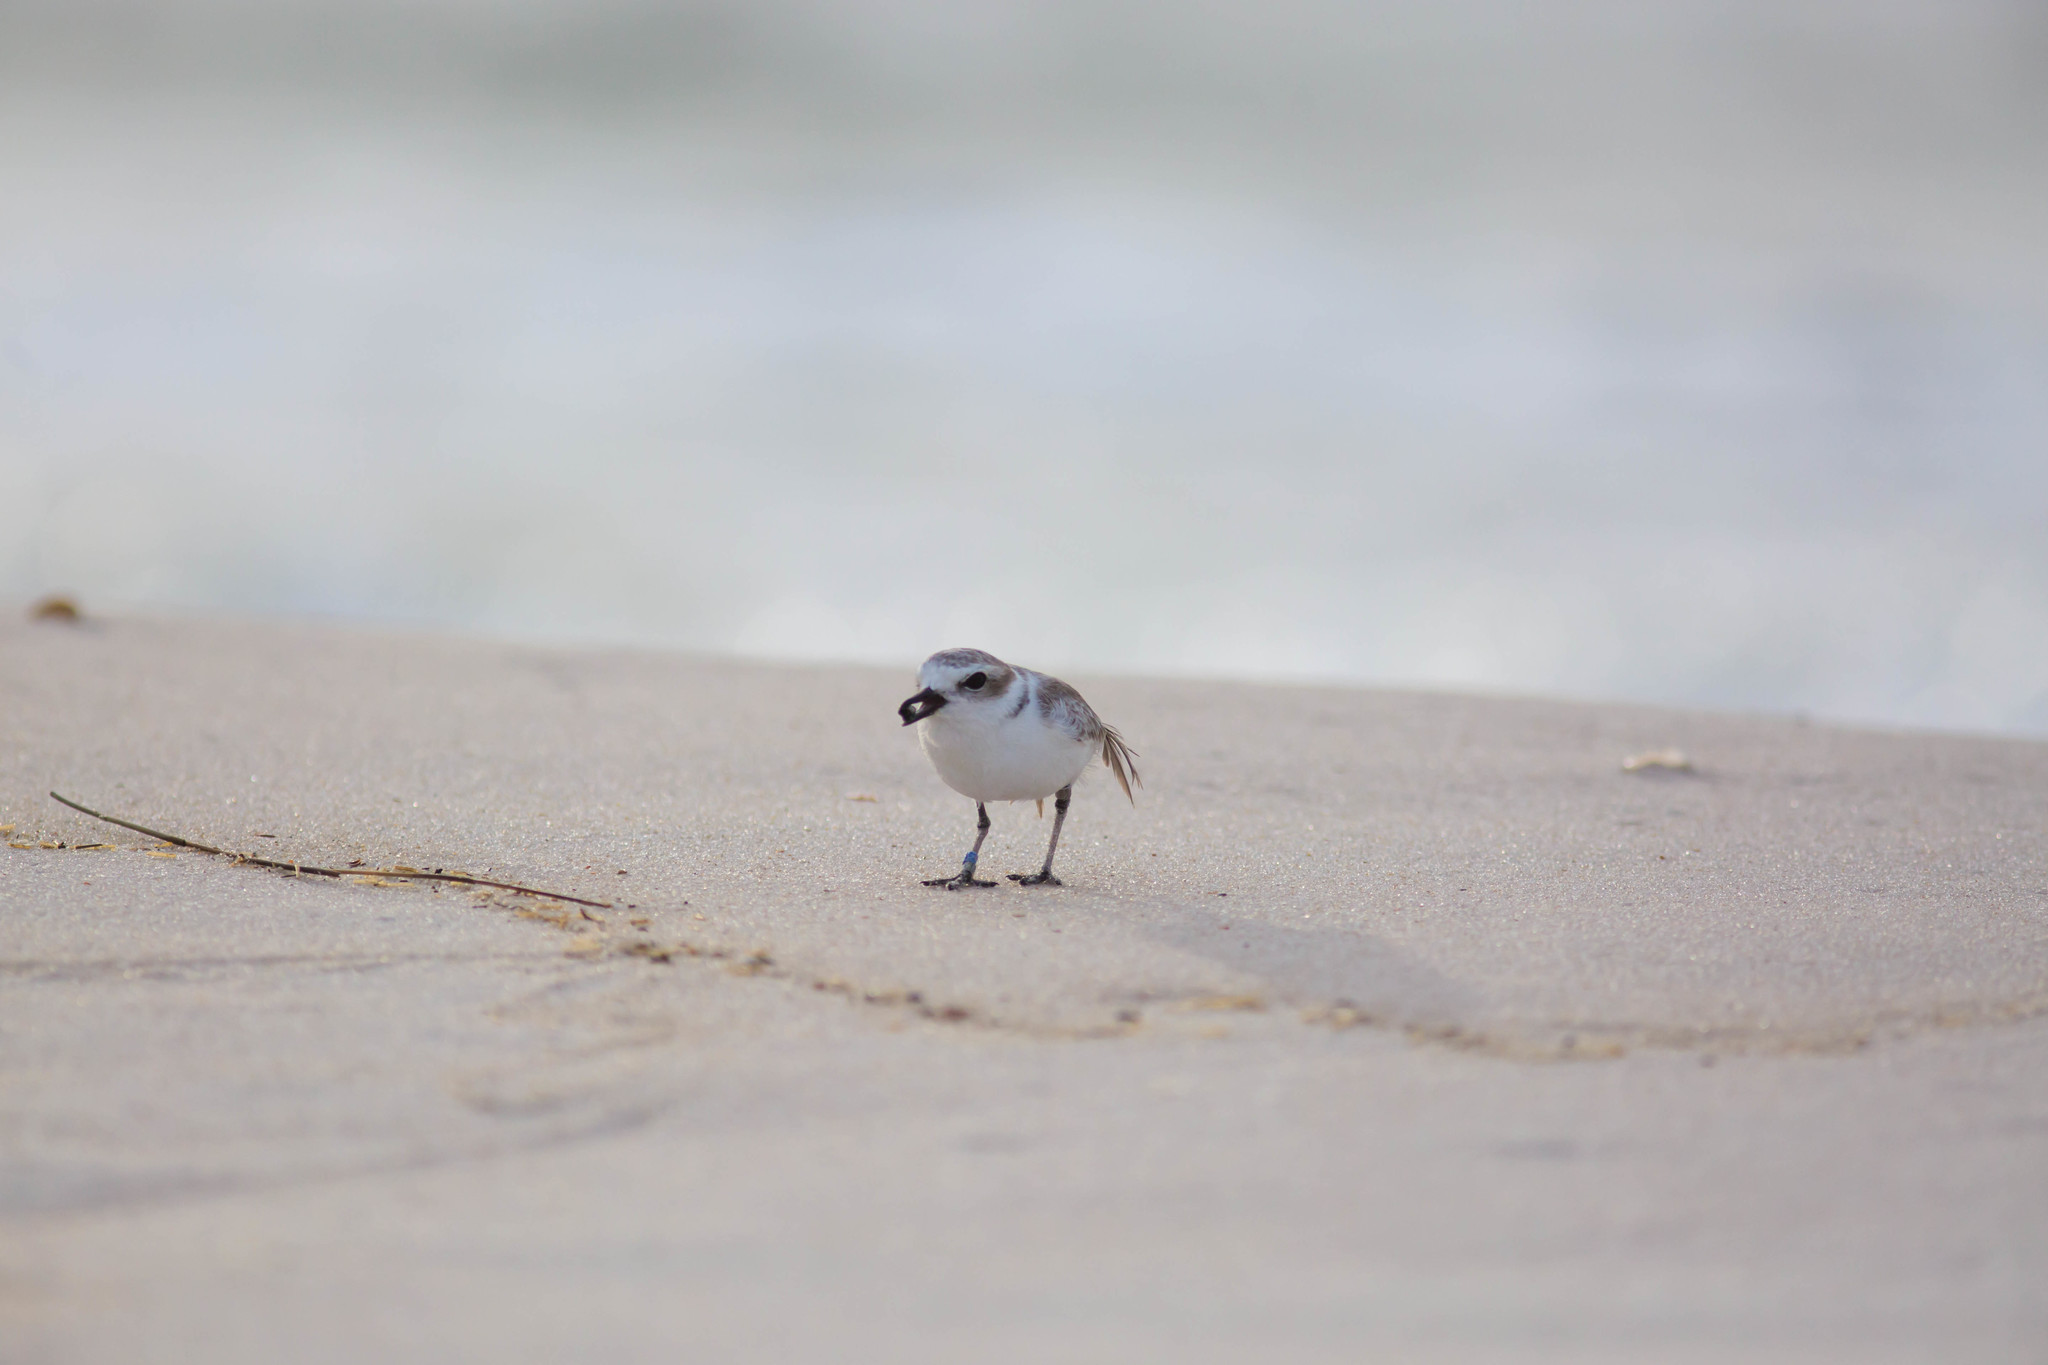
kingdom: Animalia
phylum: Chordata
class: Aves
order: Charadriiformes
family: Charadriidae
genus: Anarhynchus
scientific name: Anarhynchus
